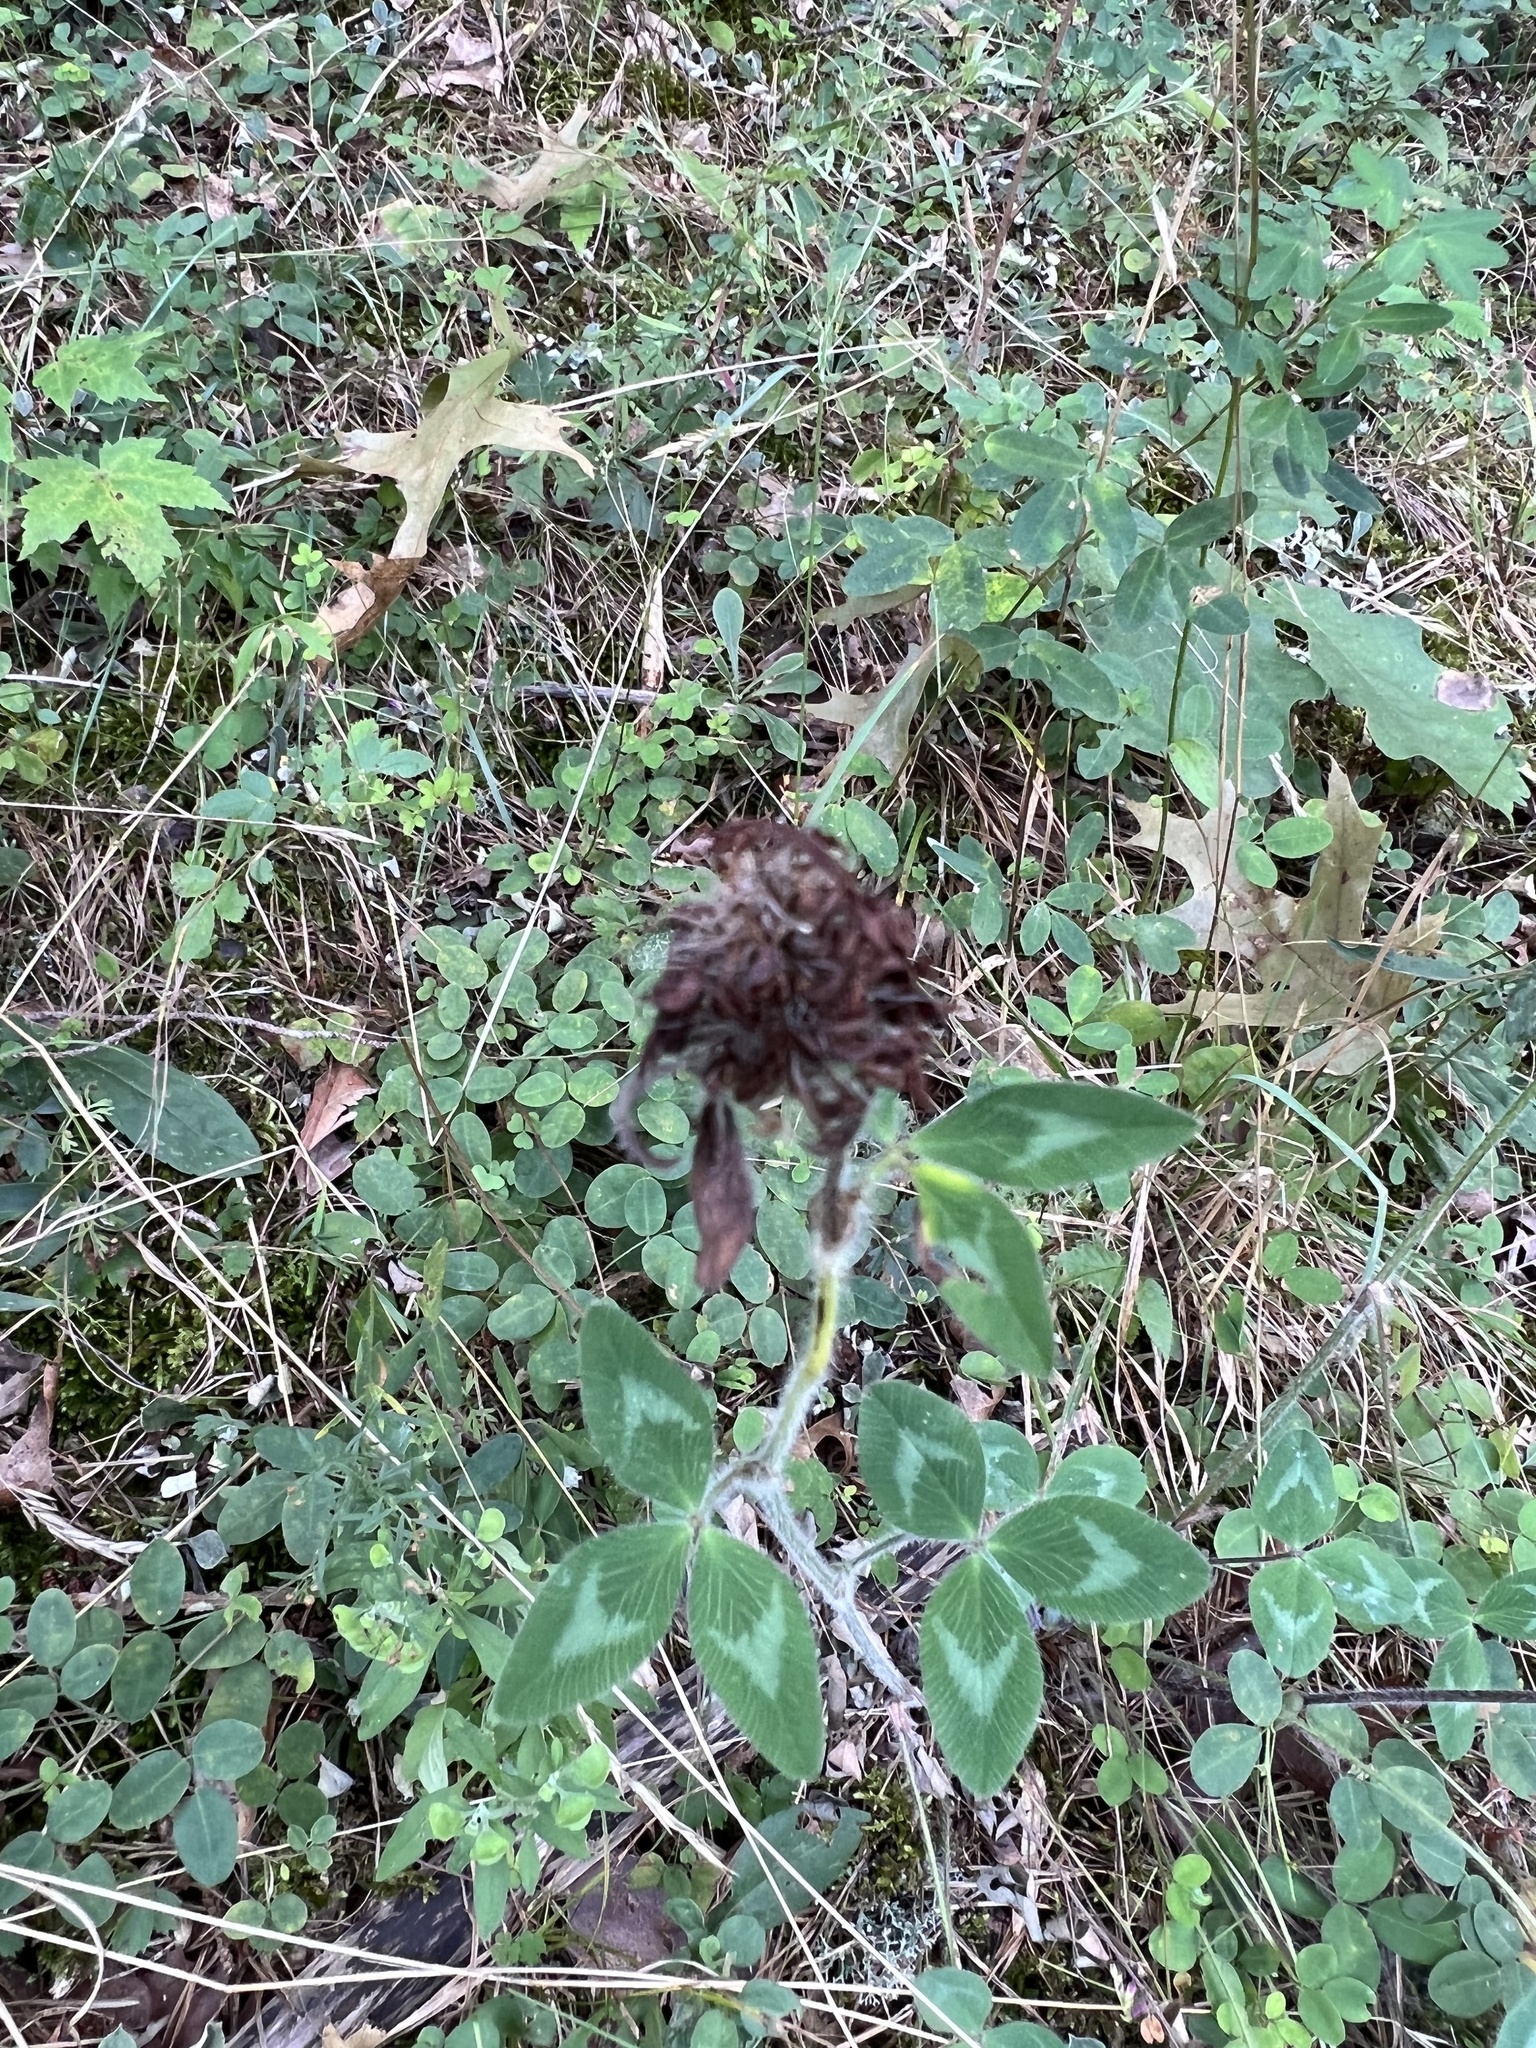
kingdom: Plantae
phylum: Tracheophyta
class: Magnoliopsida
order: Fabales
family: Fabaceae
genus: Trifolium
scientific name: Trifolium pratense
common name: Red clover
